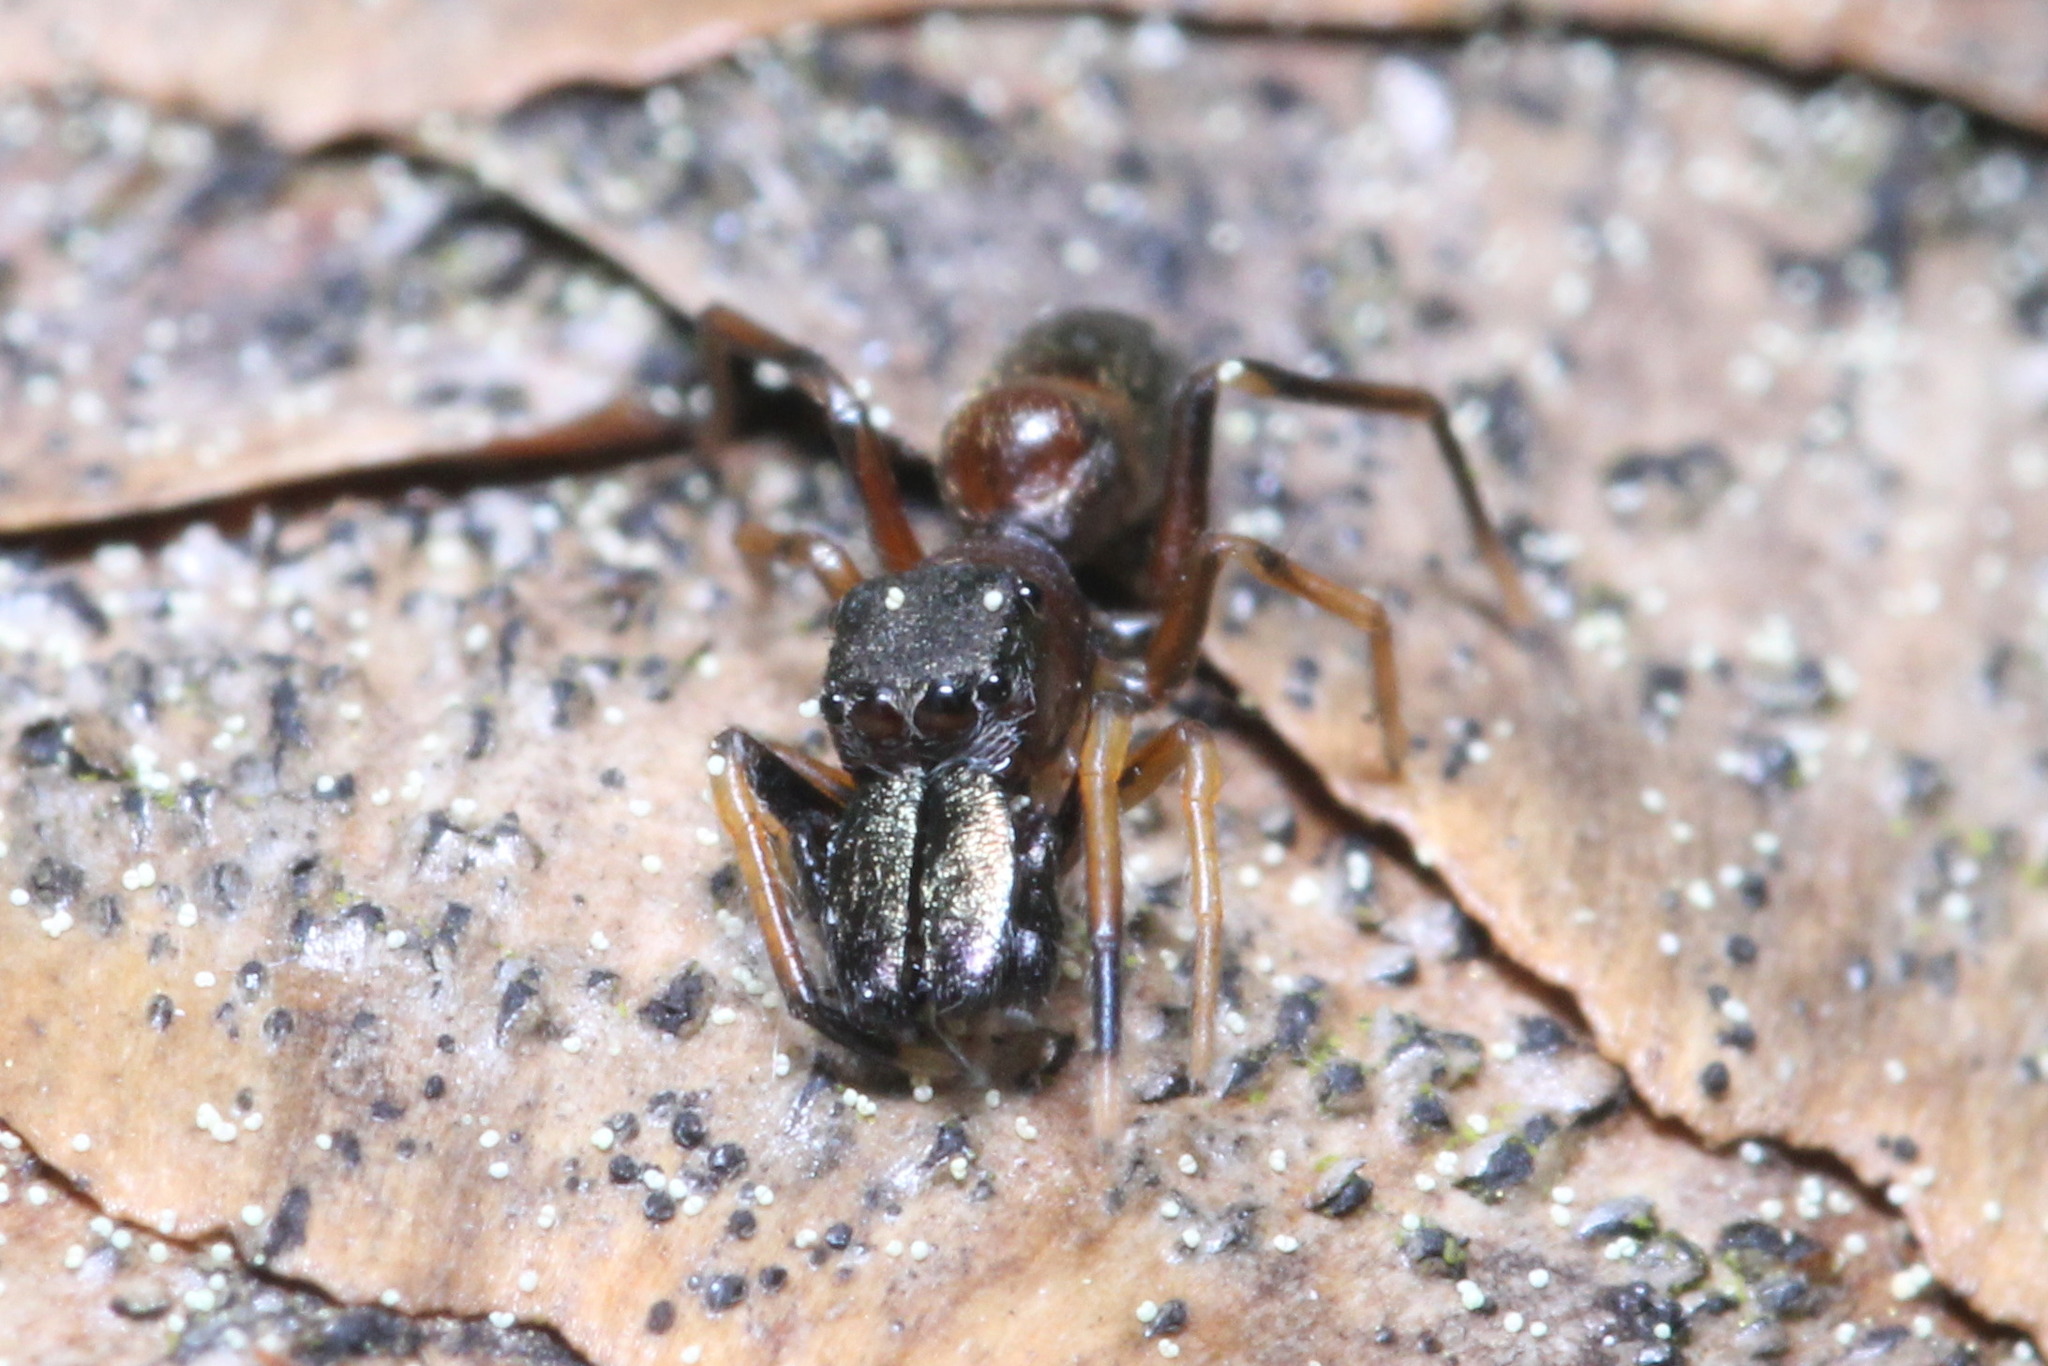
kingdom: Animalia
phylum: Arthropoda
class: Arachnida
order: Araneae
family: Salticidae
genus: Myrmarachne
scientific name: Myrmarachne formicaria
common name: Ant mimic jumping spider
